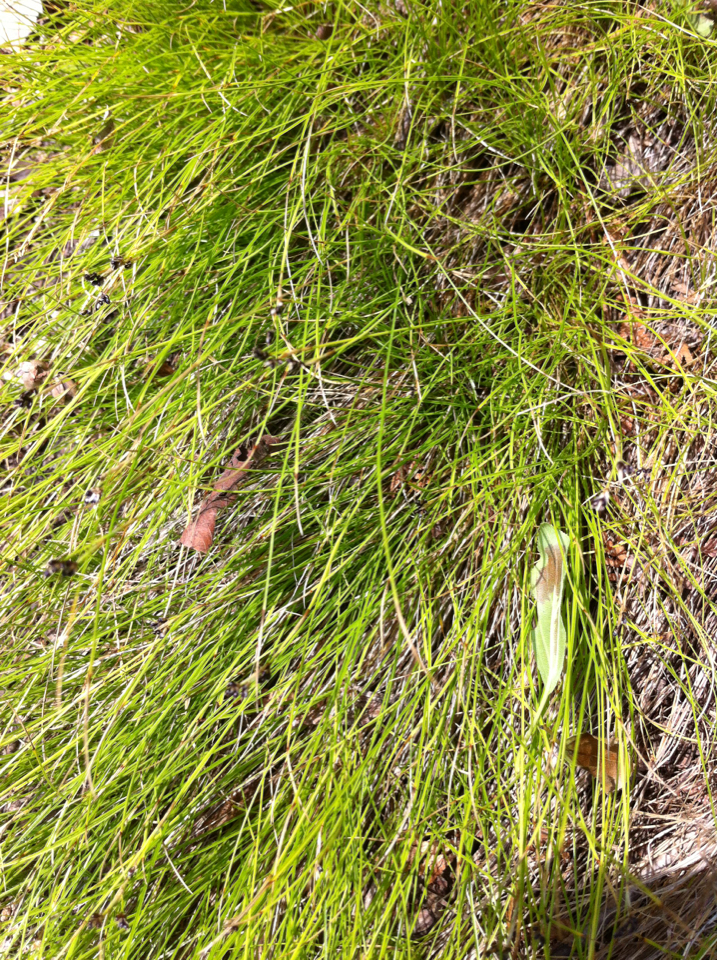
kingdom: Plantae
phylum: Tracheophyta
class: Liliopsida
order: Poales
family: Cyperaceae
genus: Carex
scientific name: Carex eburnea
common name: Bristle-leaved sedge
